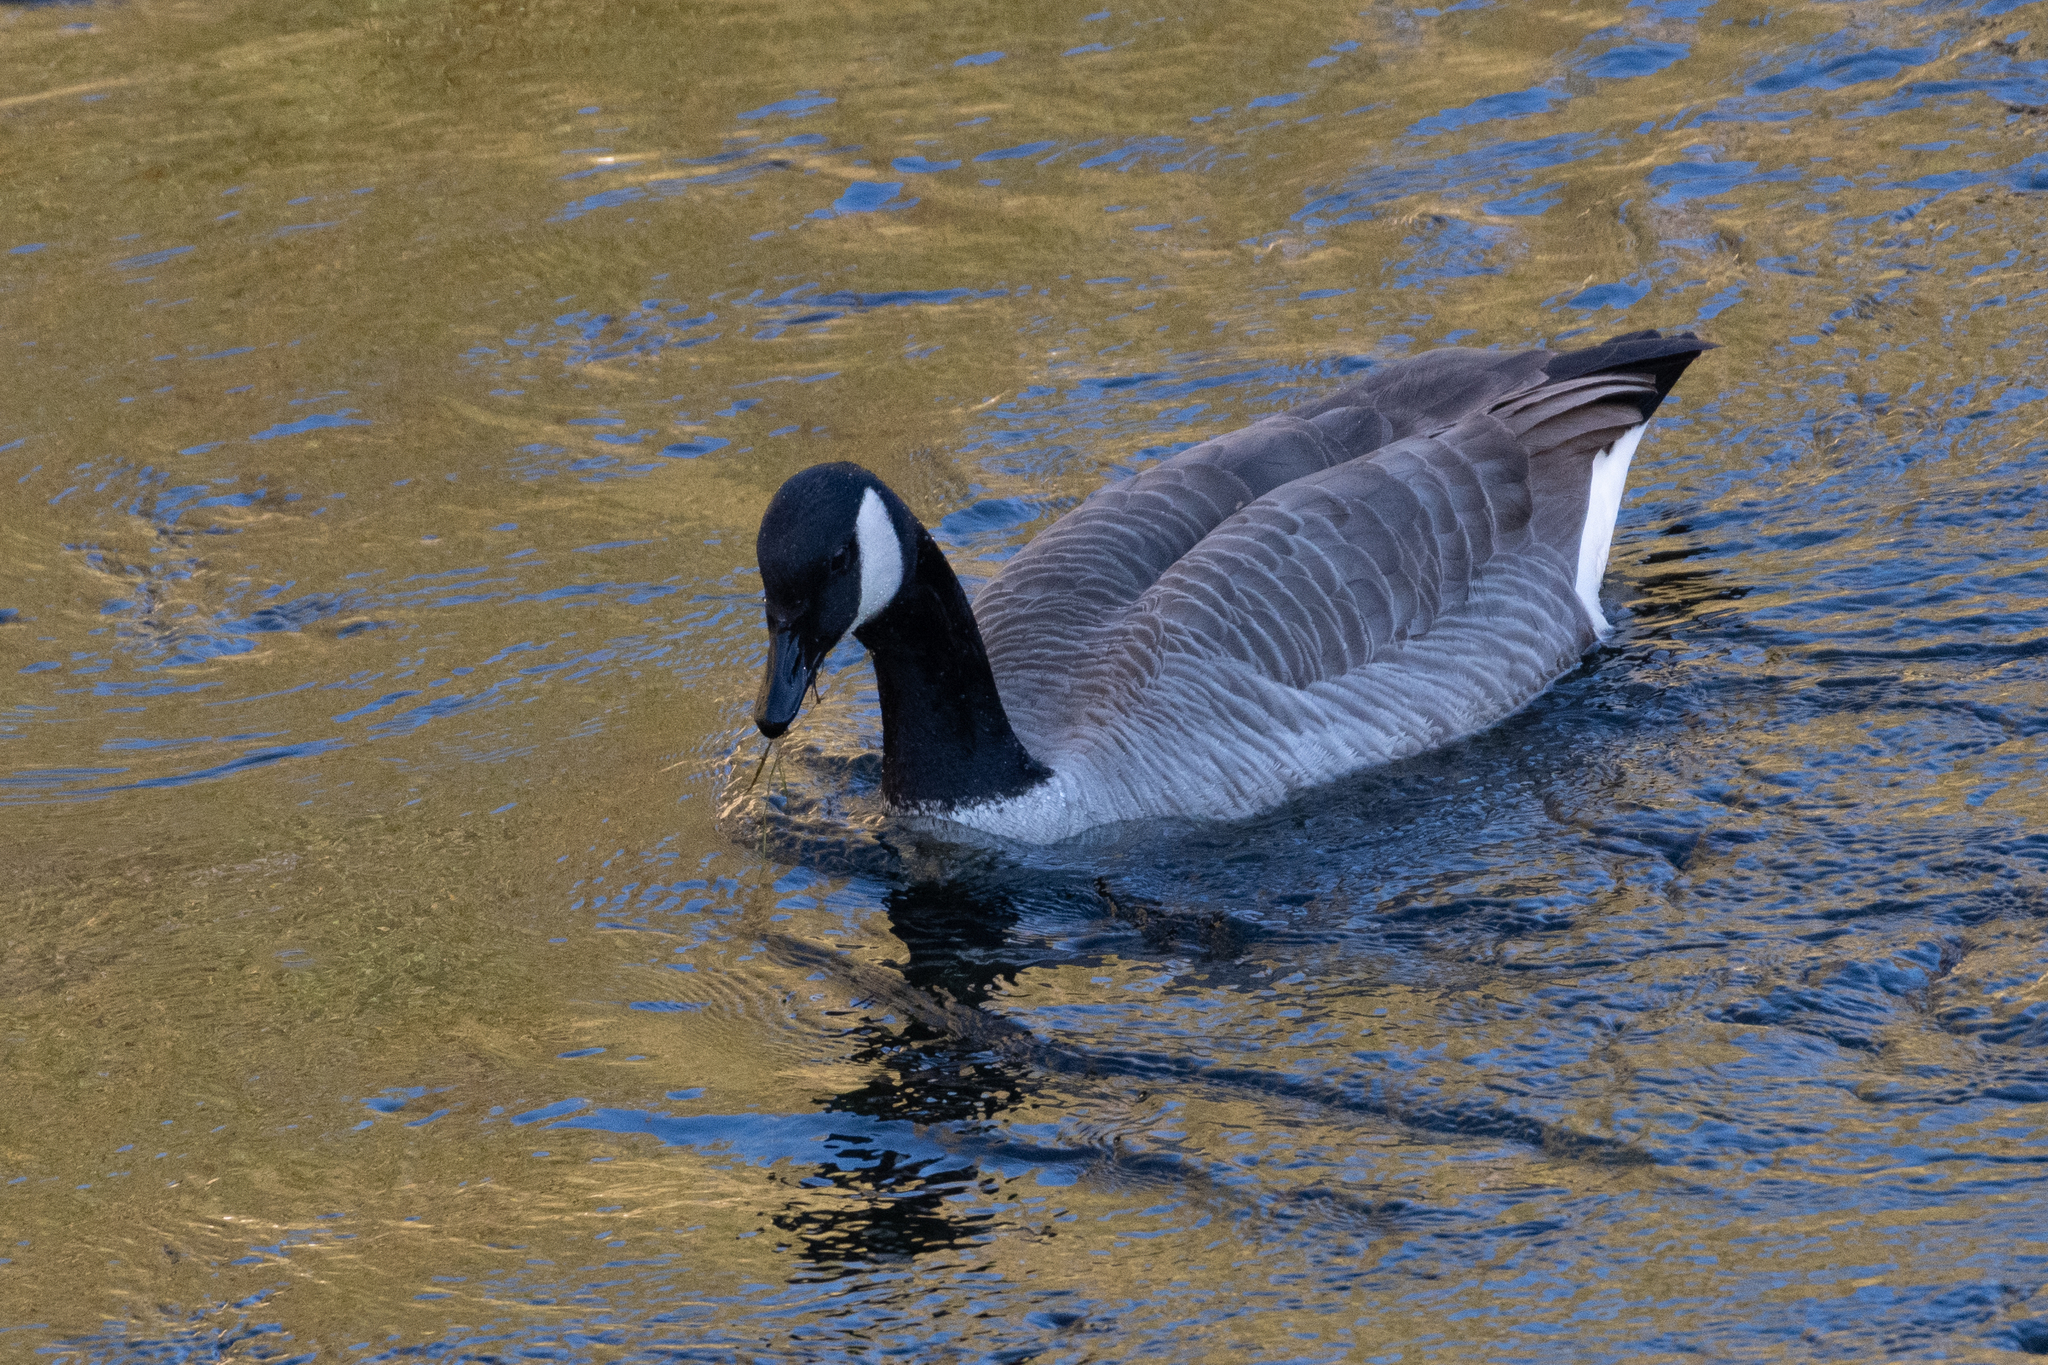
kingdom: Animalia
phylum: Chordata
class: Aves
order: Anseriformes
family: Anatidae
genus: Branta
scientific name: Branta canadensis
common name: Canada goose
